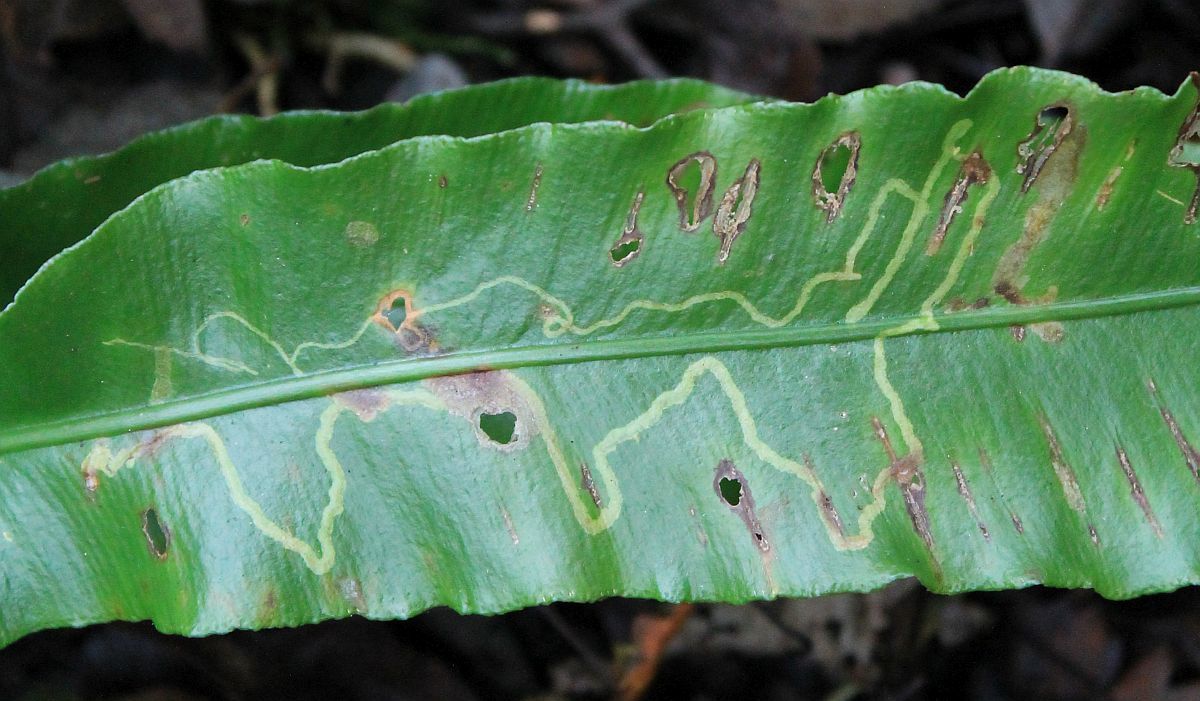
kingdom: Animalia
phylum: Arthropoda
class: Insecta
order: Diptera
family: Agromyzidae
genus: Phytomyza
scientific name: Phytomyza scolopendri
